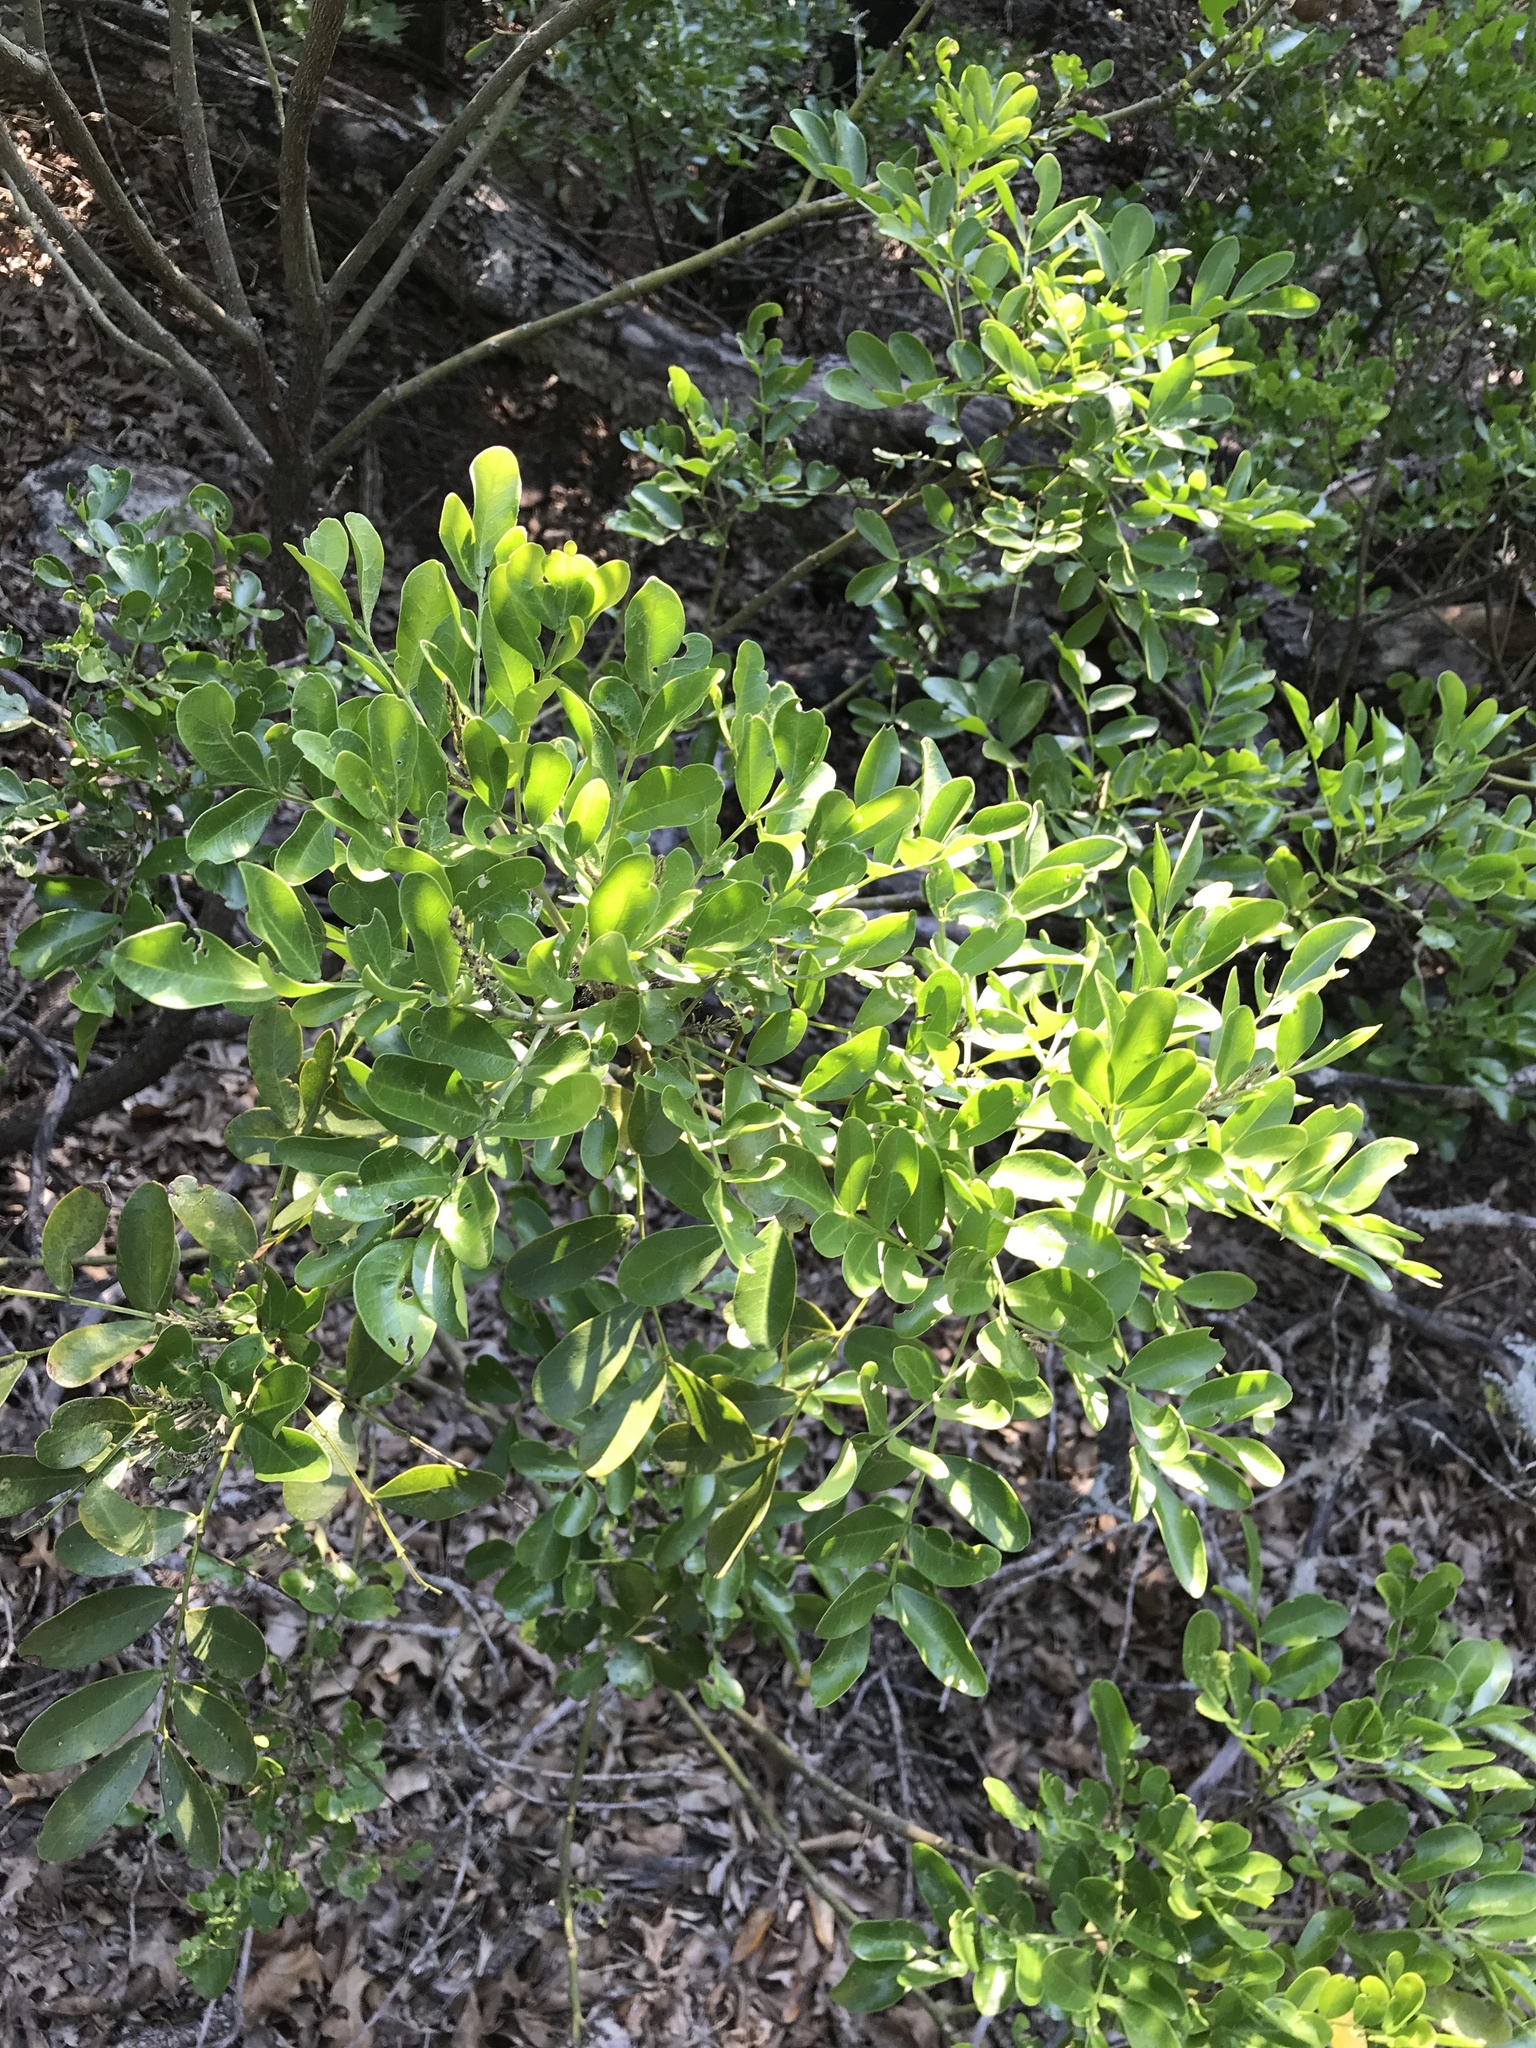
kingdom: Plantae
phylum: Tracheophyta
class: Magnoliopsida
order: Fabales
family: Fabaceae
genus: Dermatophyllum
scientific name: Dermatophyllum secundiflorum
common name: Texas-mountain-laurel
